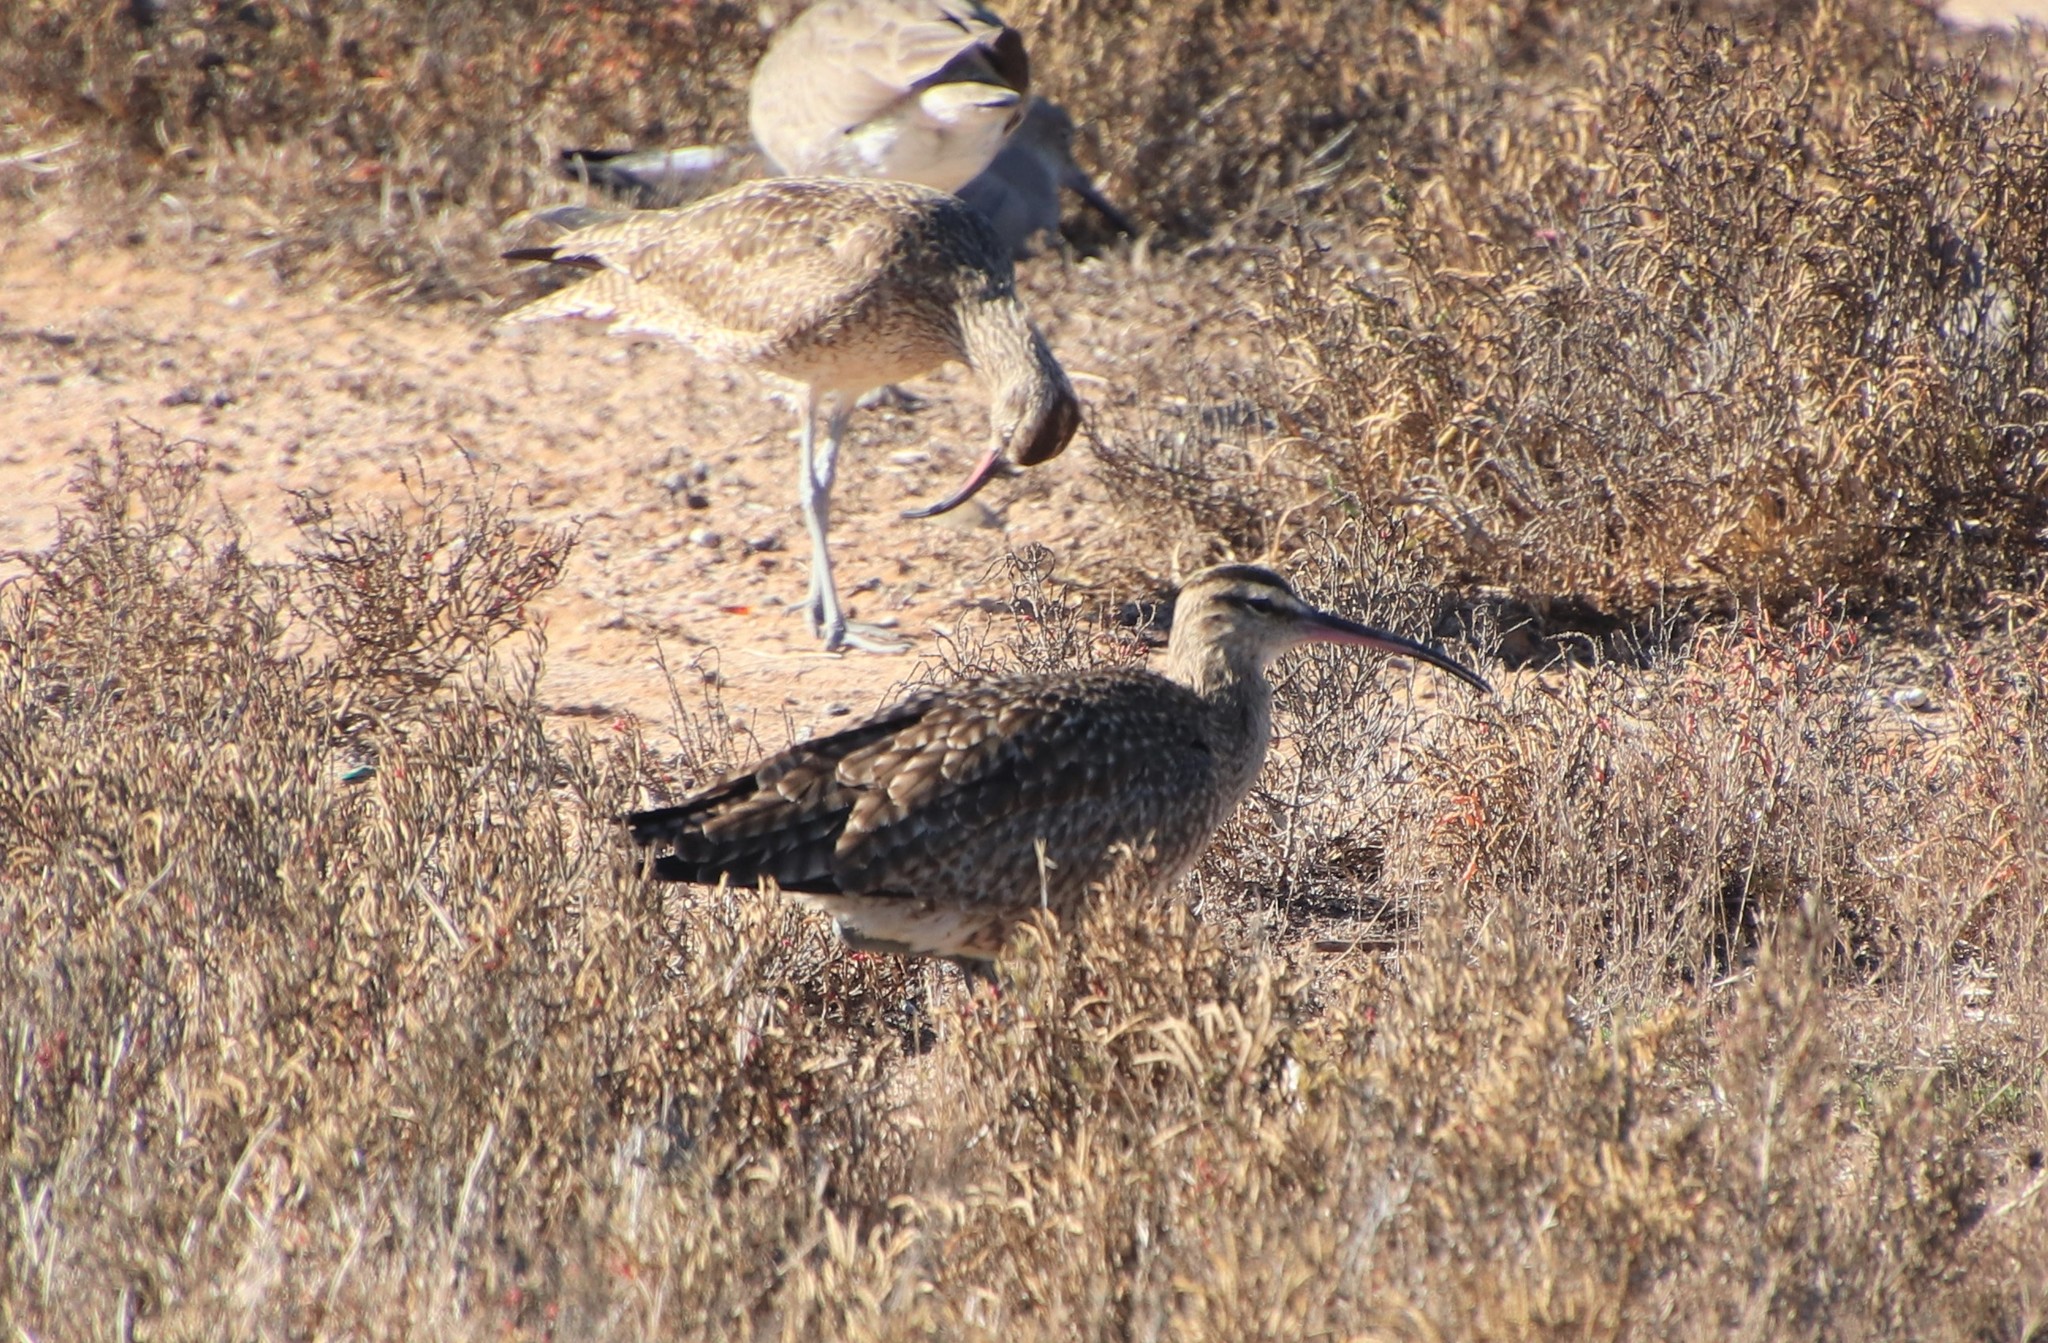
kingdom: Animalia
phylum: Chordata
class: Aves
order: Charadriiformes
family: Scolopacidae
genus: Numenius
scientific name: Numenius phaeopus
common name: Whimbrel
